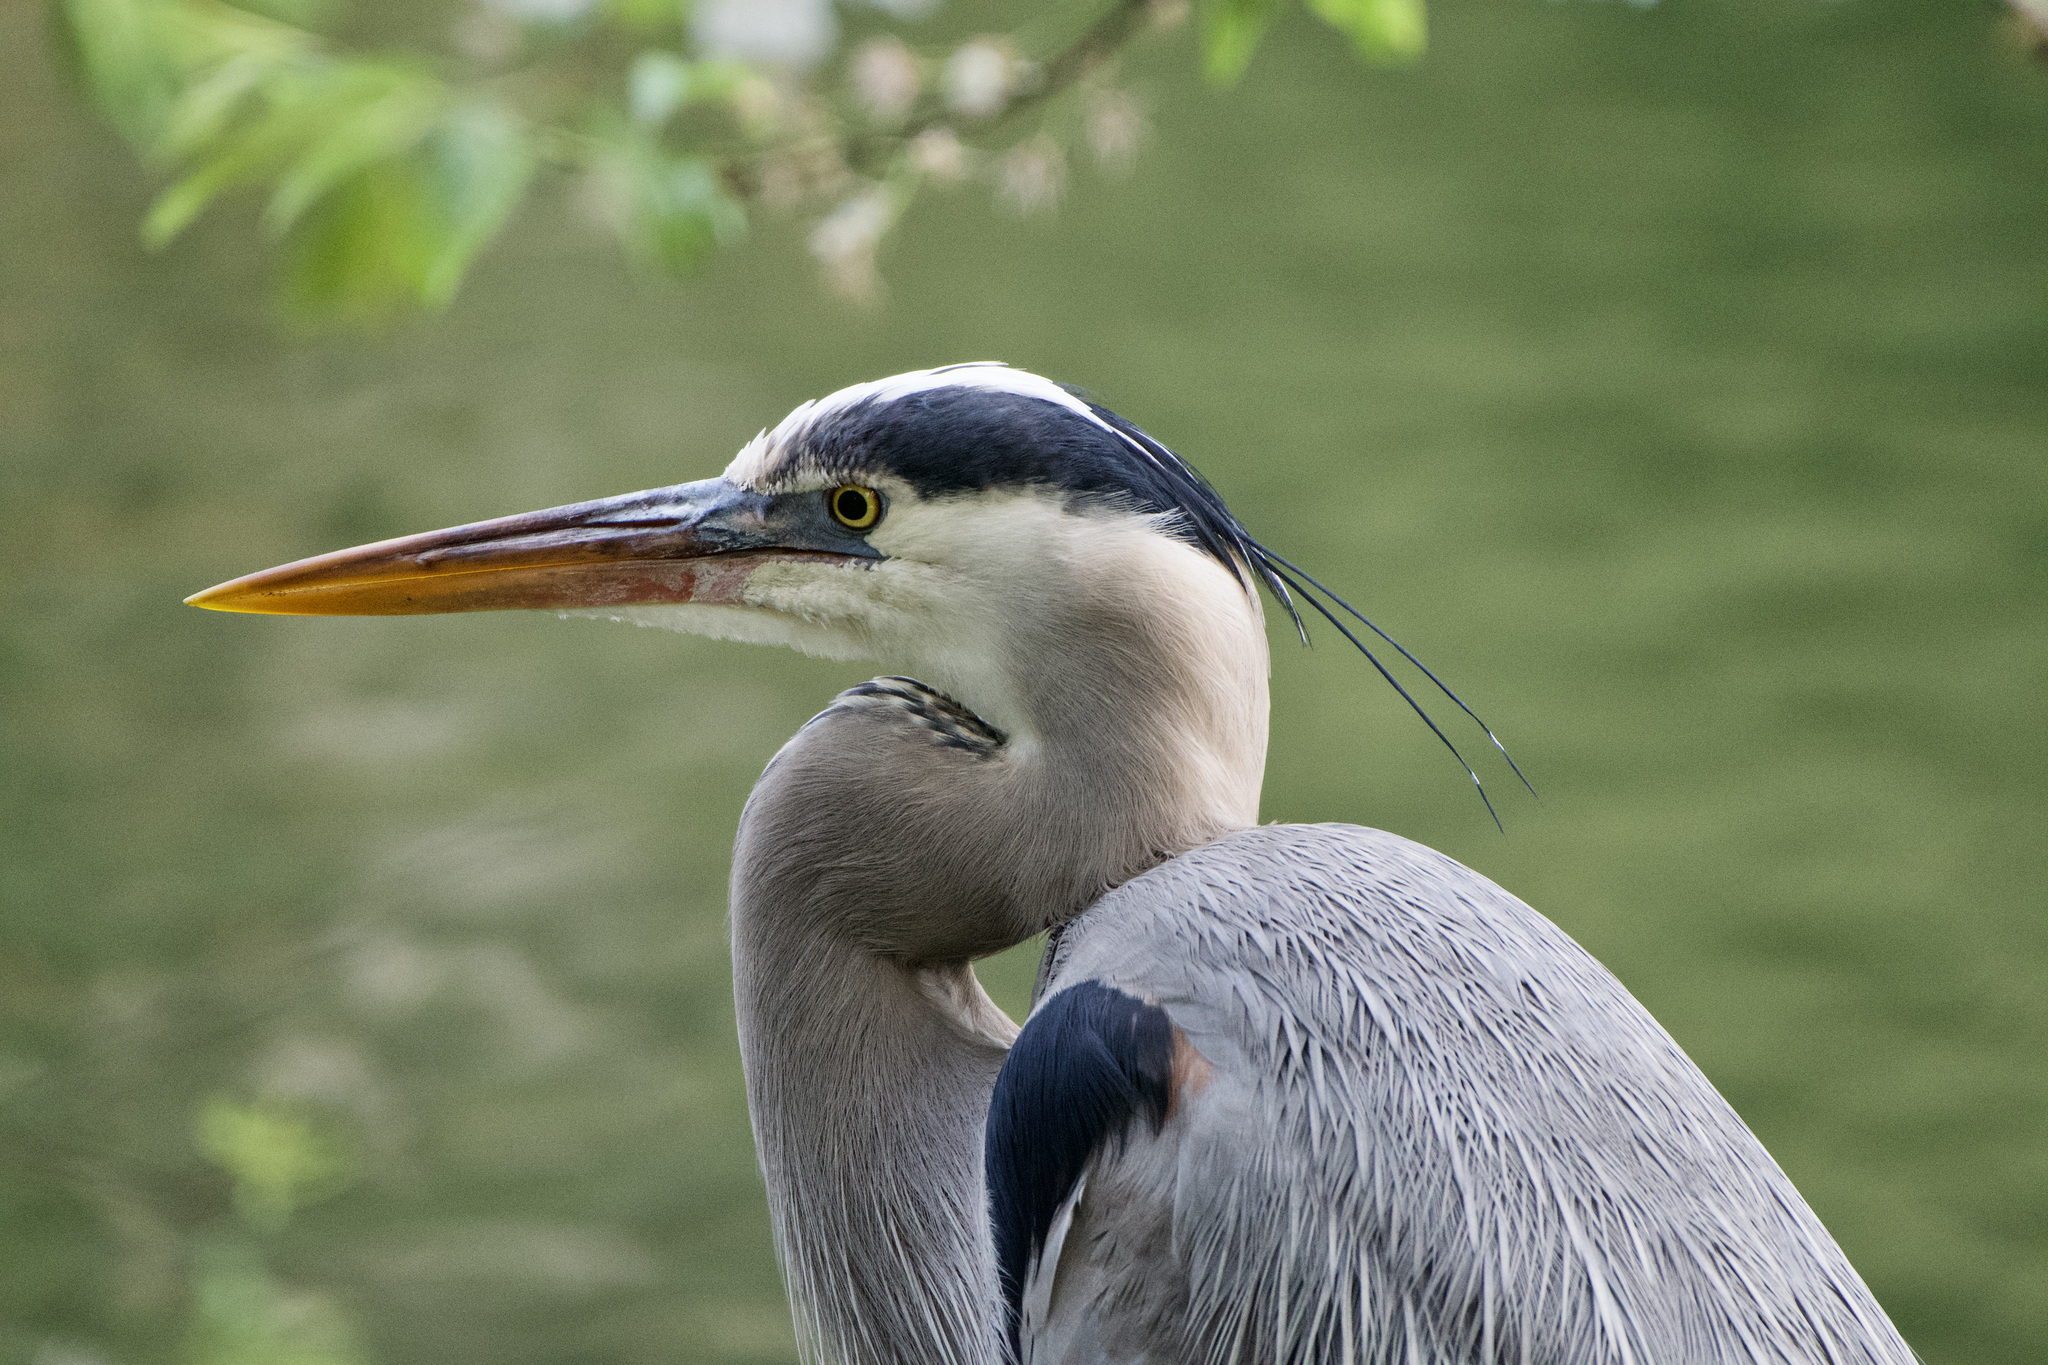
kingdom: Animalia
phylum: Chordata
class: Aves
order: Pelecaniformes
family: Ardeidae
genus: Ardea
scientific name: Ardea herodias
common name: Great blue heron
